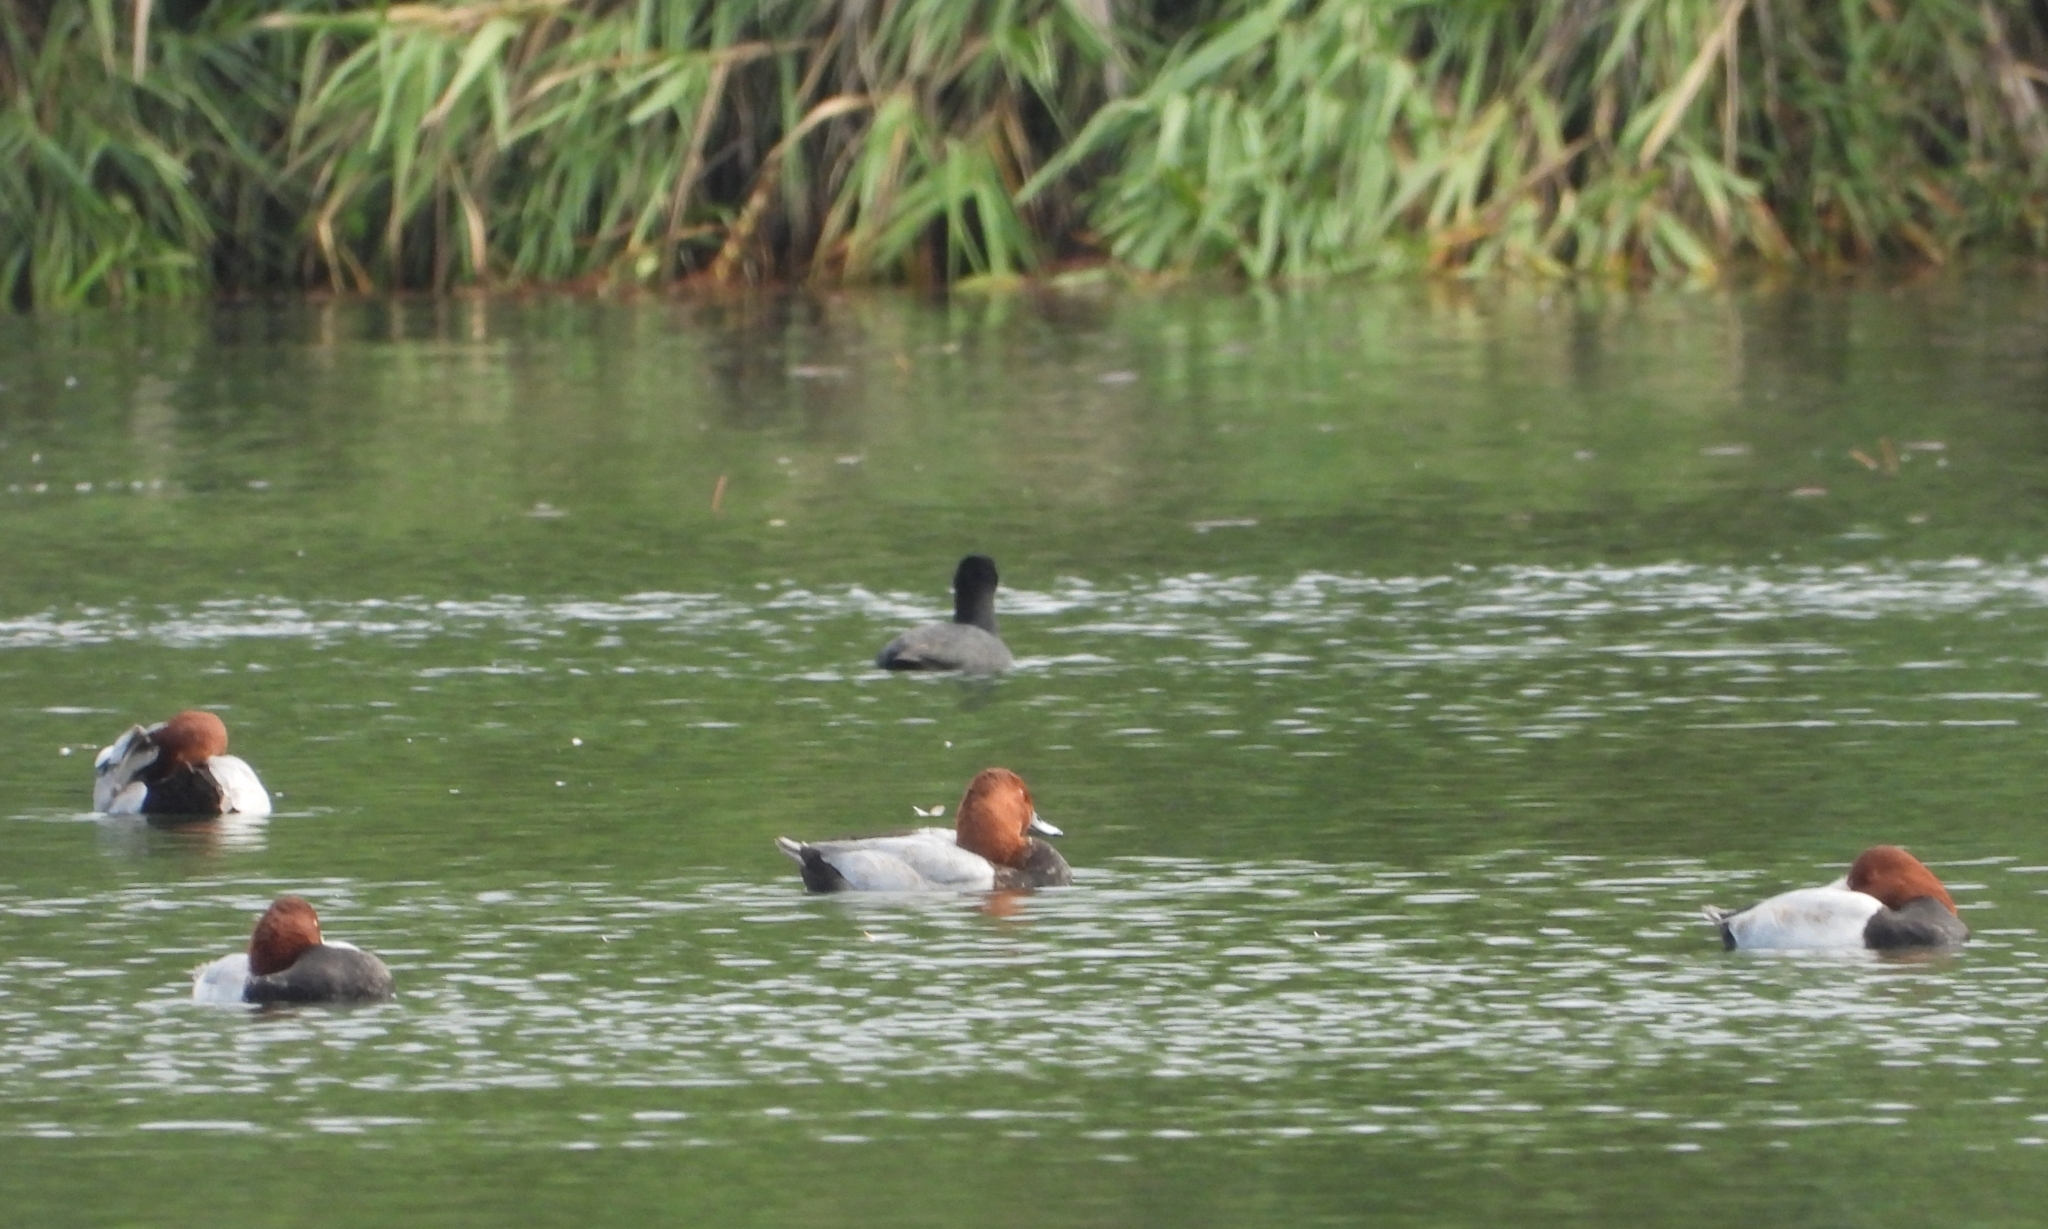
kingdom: Animalia
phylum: Chordata
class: Aves
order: Anseriformes
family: Anatidae
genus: Aythya
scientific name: Aythya ferina
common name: Common pochard
